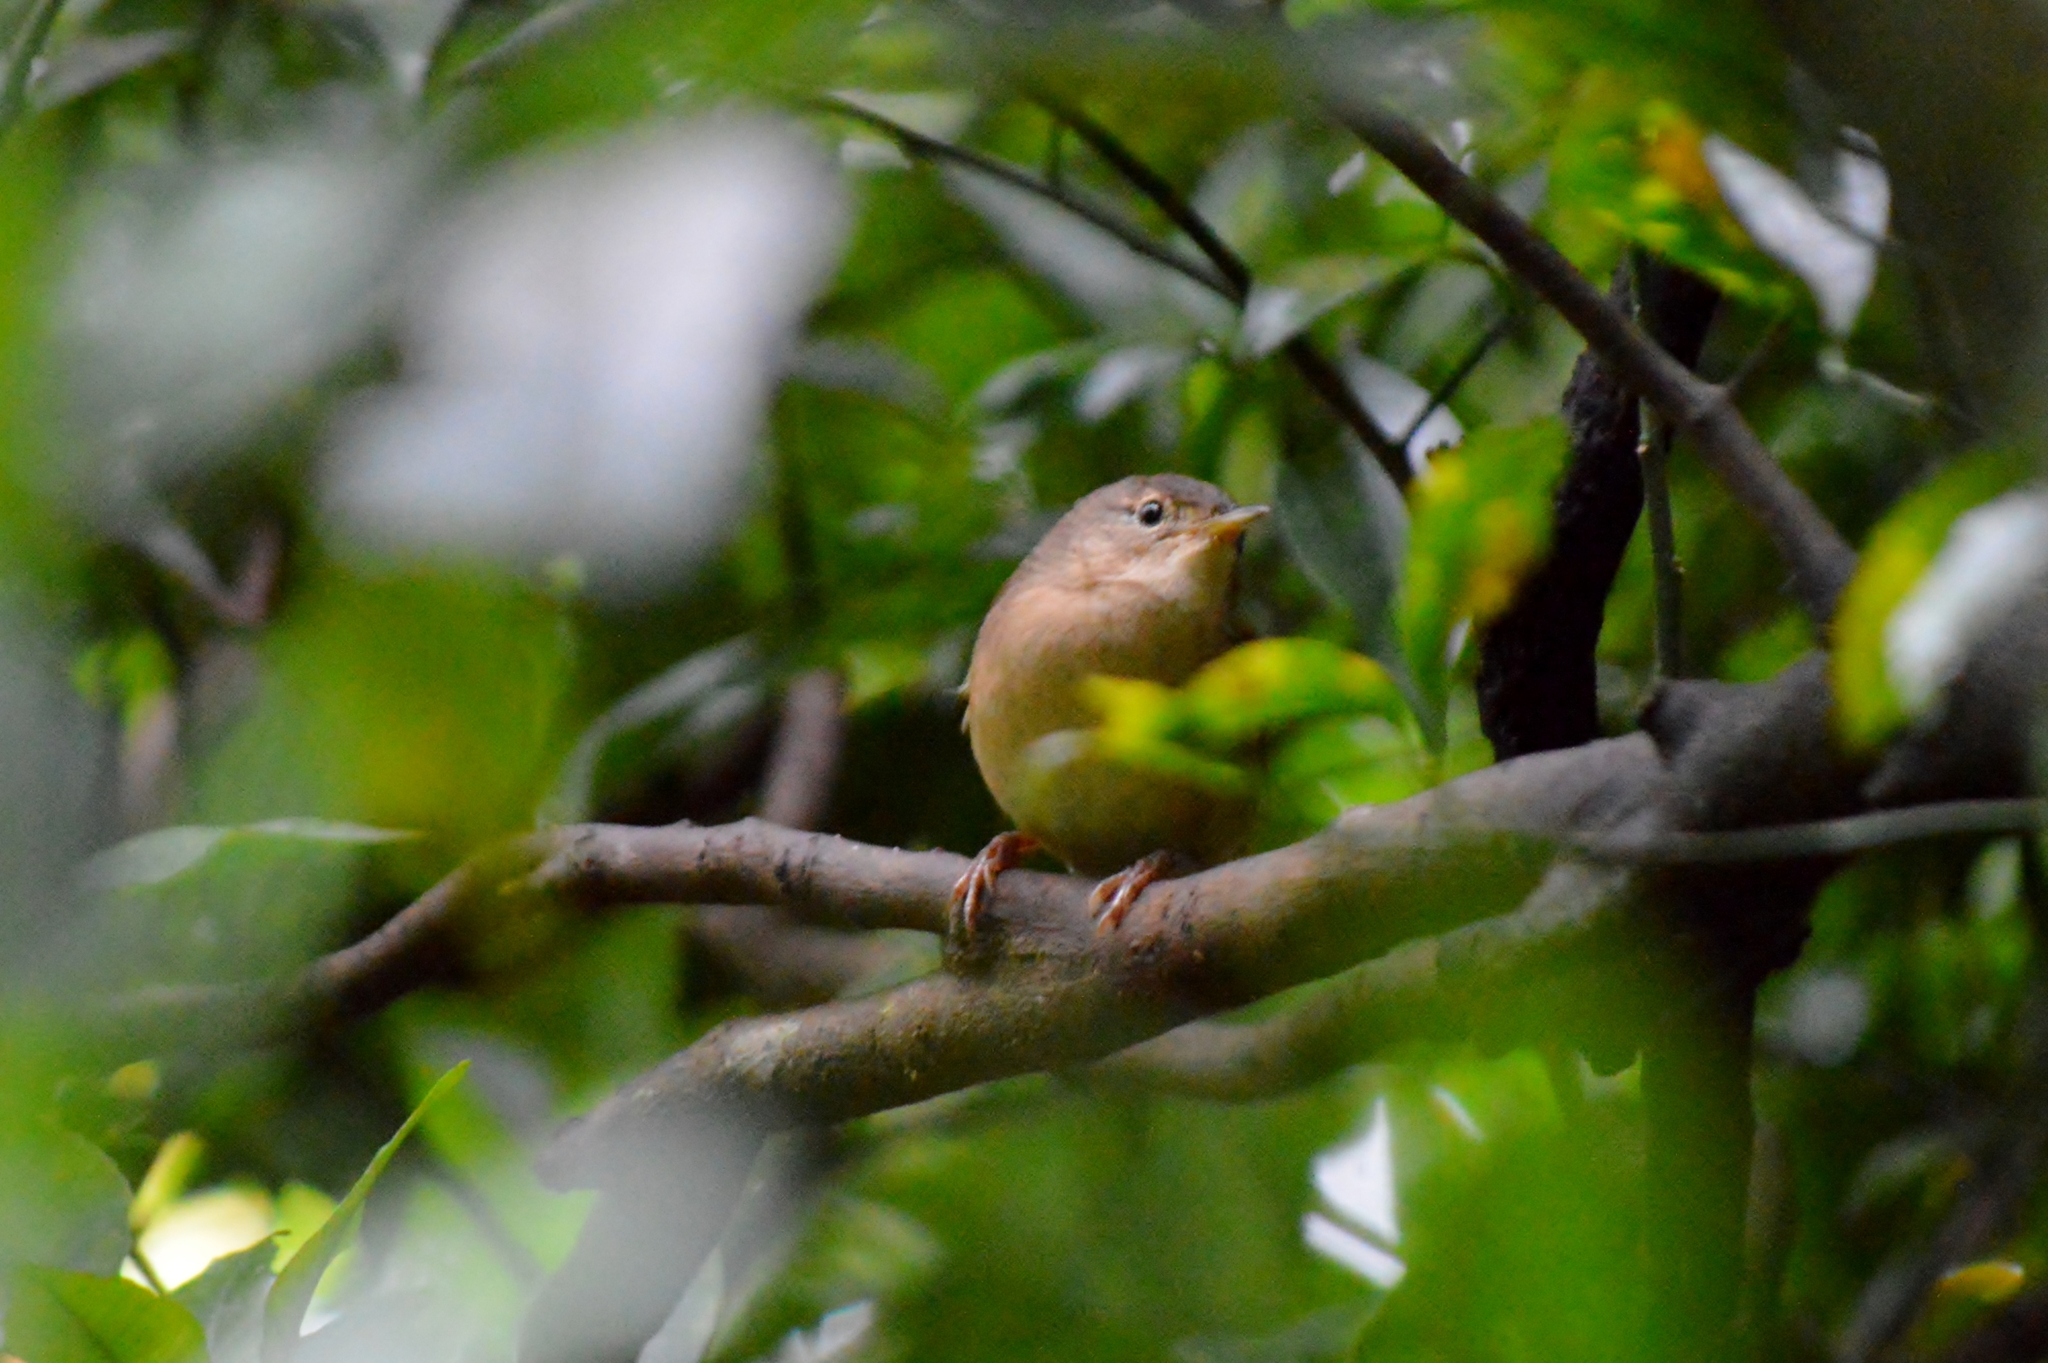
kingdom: Animalia
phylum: Chordata
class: Aves
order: Passeriformes
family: Troglodytidae
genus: Troglodytes
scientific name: Troglodytes aedon
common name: House wren
